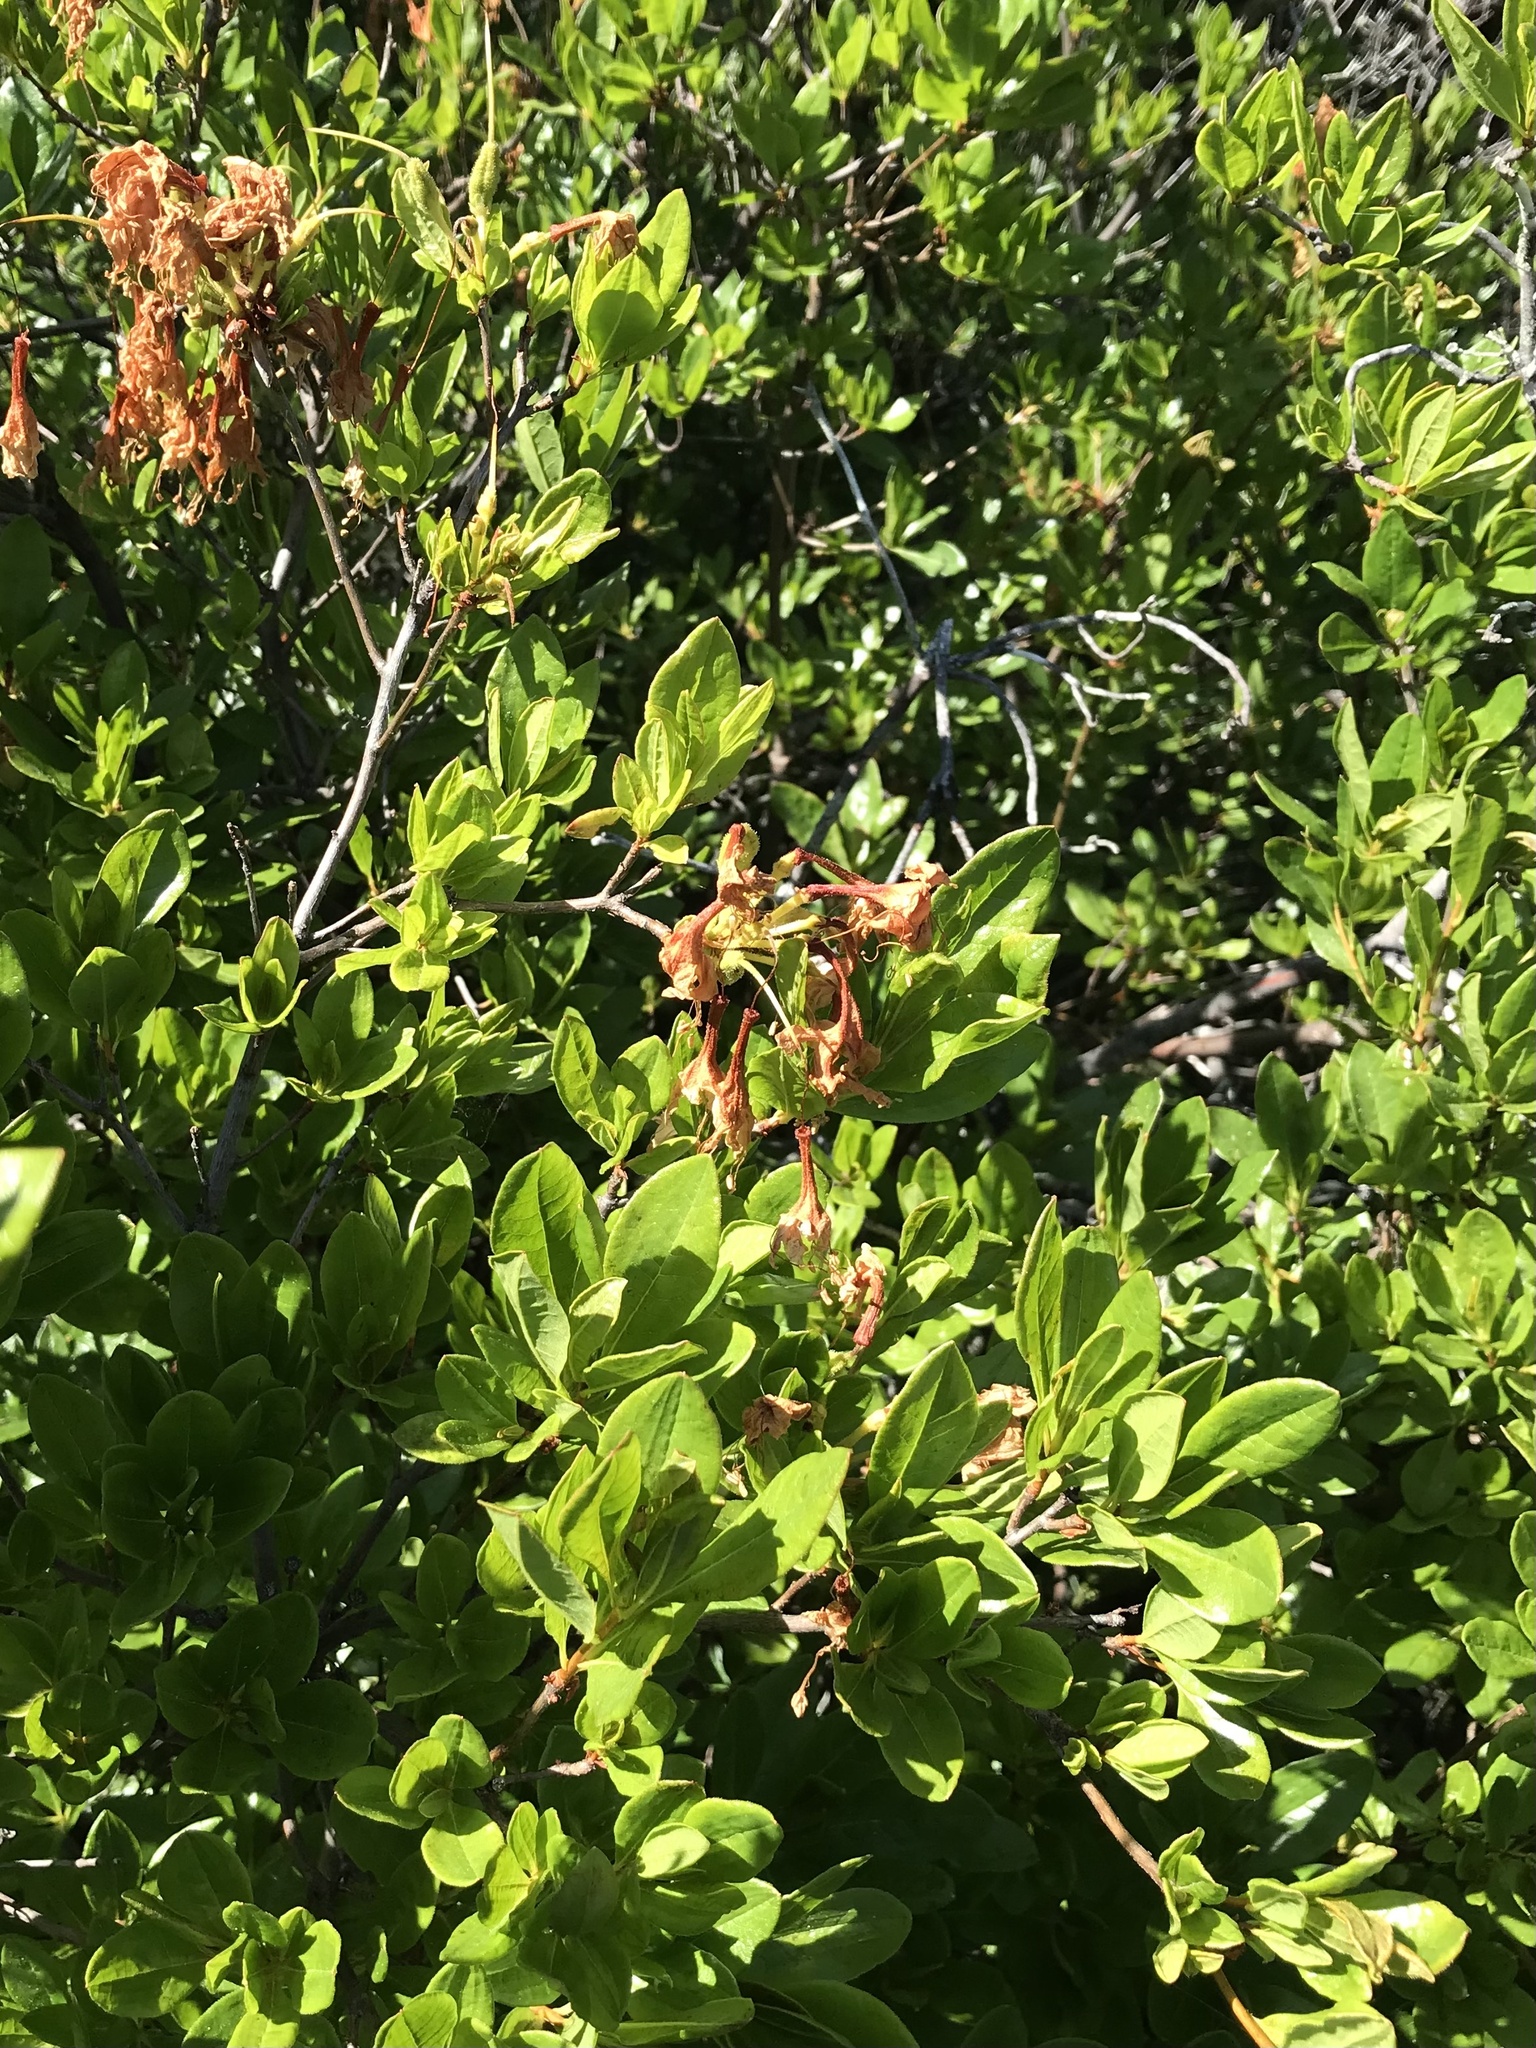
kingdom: Plantae
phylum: Tracheophyta
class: Magnoliopsida
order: Ericales
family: Ericaceae
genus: Rhododendron
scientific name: Rhododendron occidentale
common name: Western azalea
